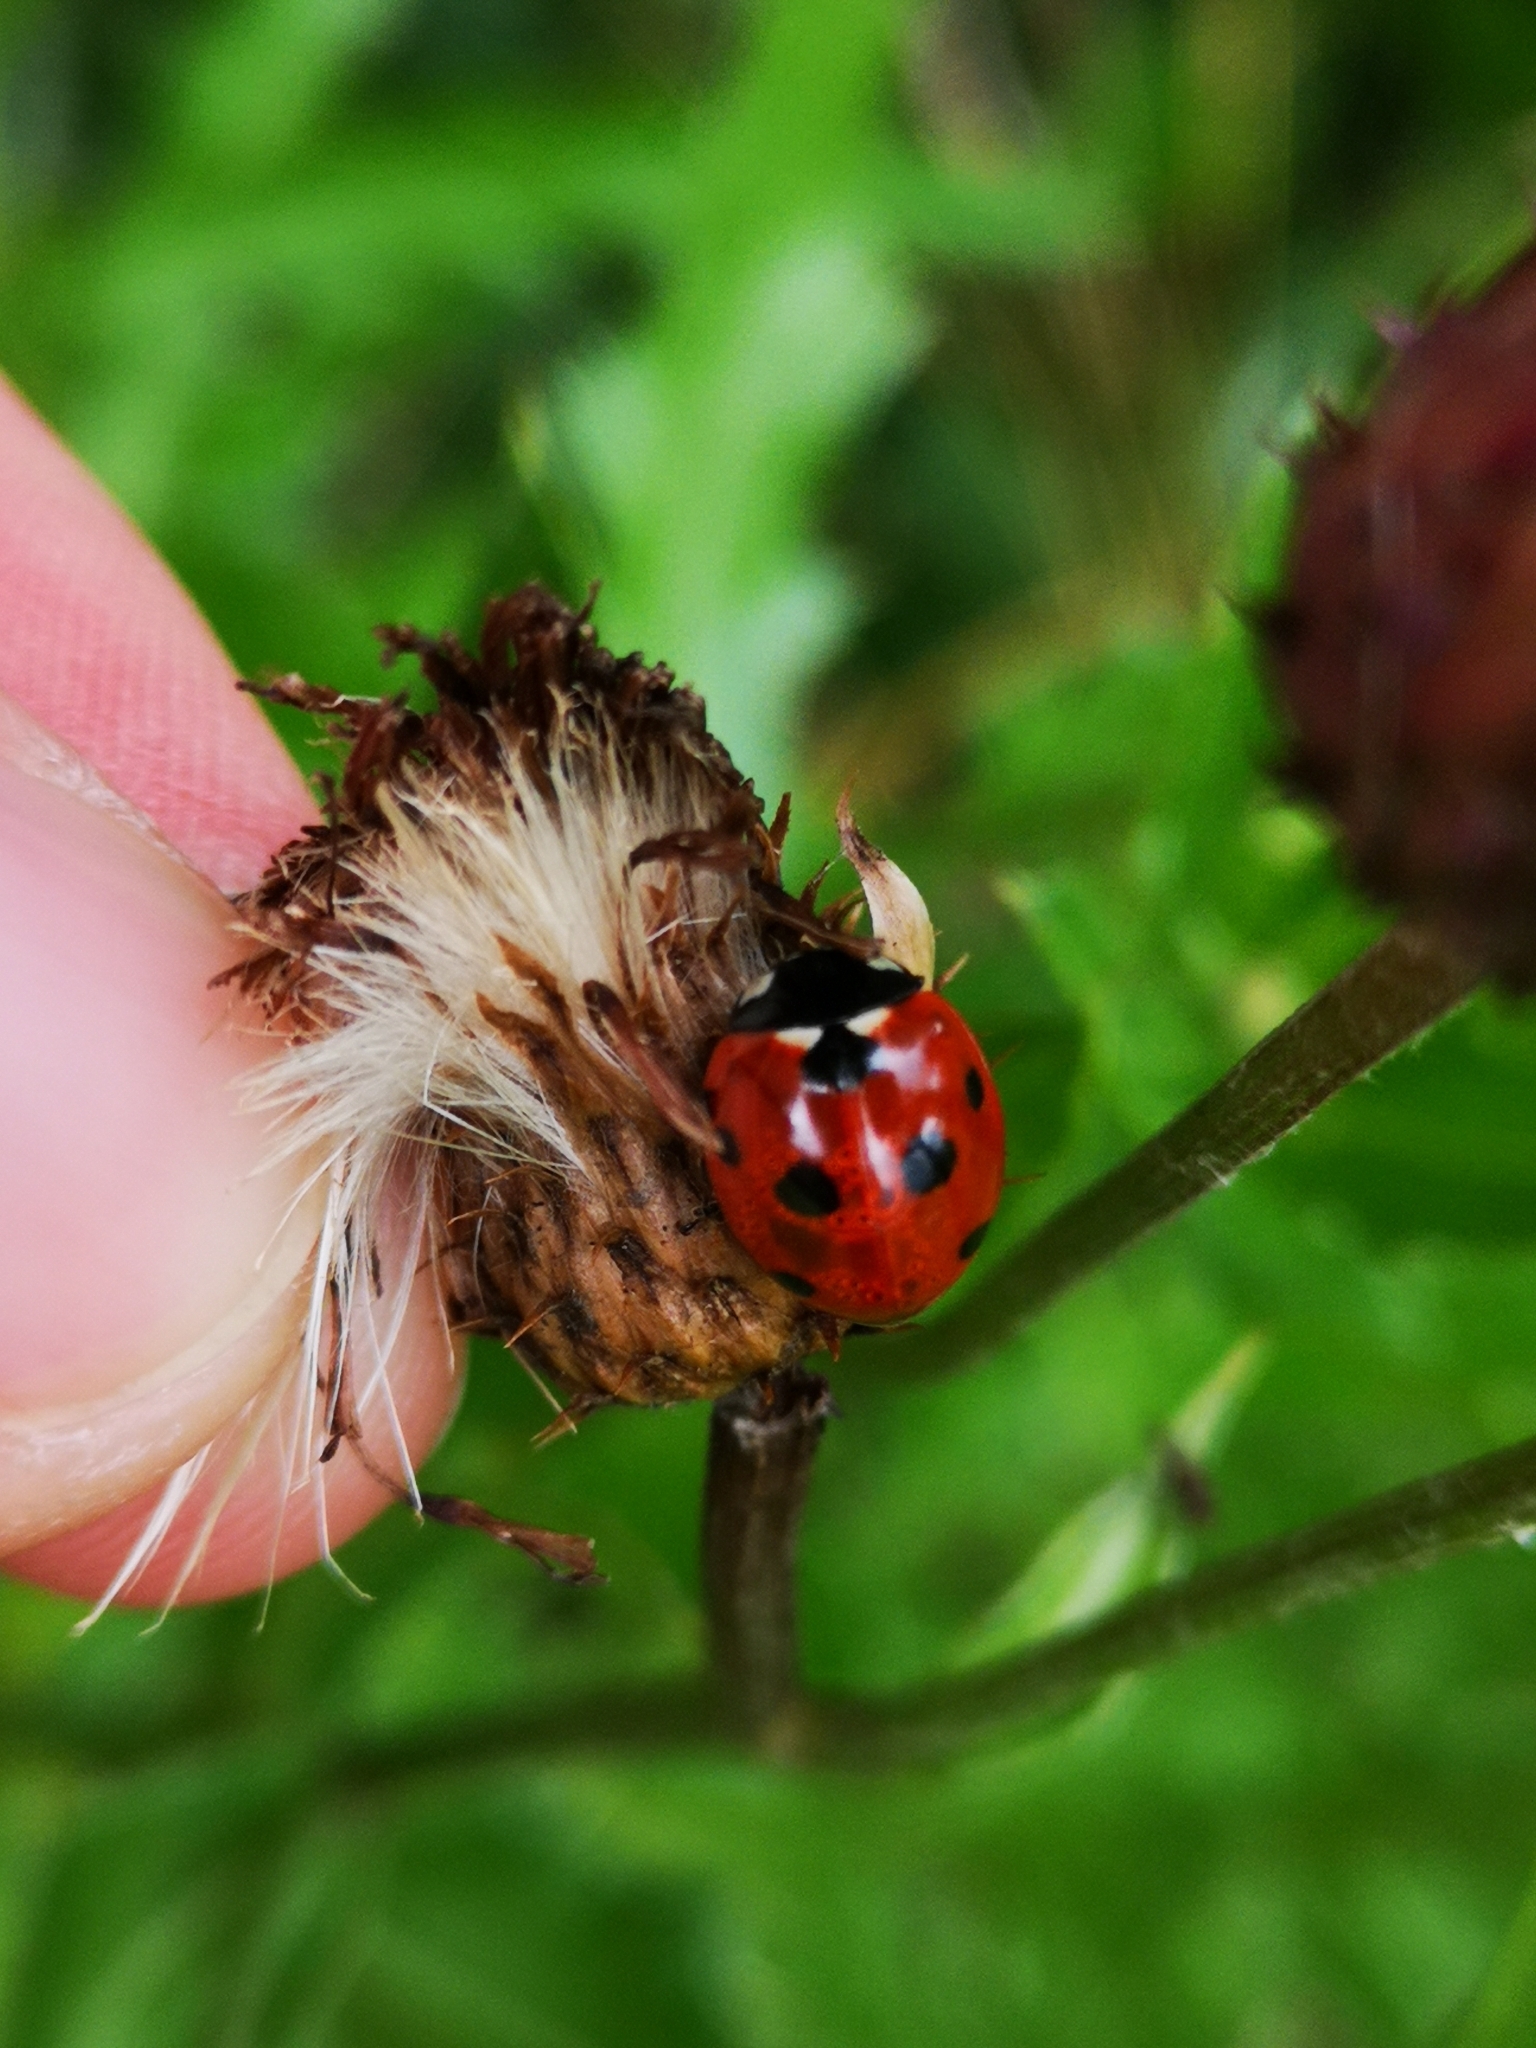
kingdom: Animalia
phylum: Arthropoda
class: Insecta
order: Coleoptera
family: Coccinellidae
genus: Coccinella
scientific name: Coccinella septempunctata
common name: Sevenspotted lady beetle
